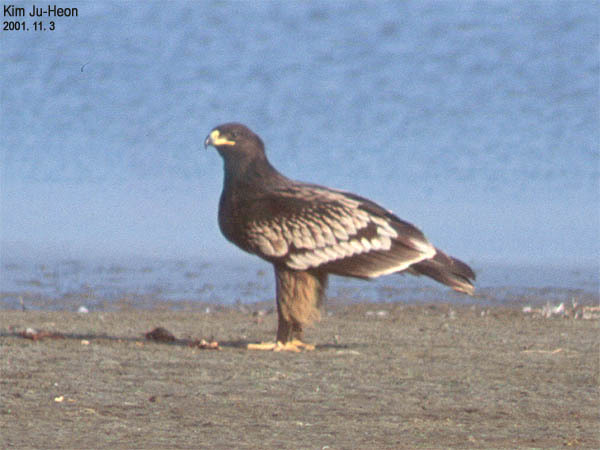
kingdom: Animalia
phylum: Chordata
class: Aves
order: Accipitriformes
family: Accipitridae
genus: Aquila
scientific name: Aquila clanga
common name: Greater spotted eagle
